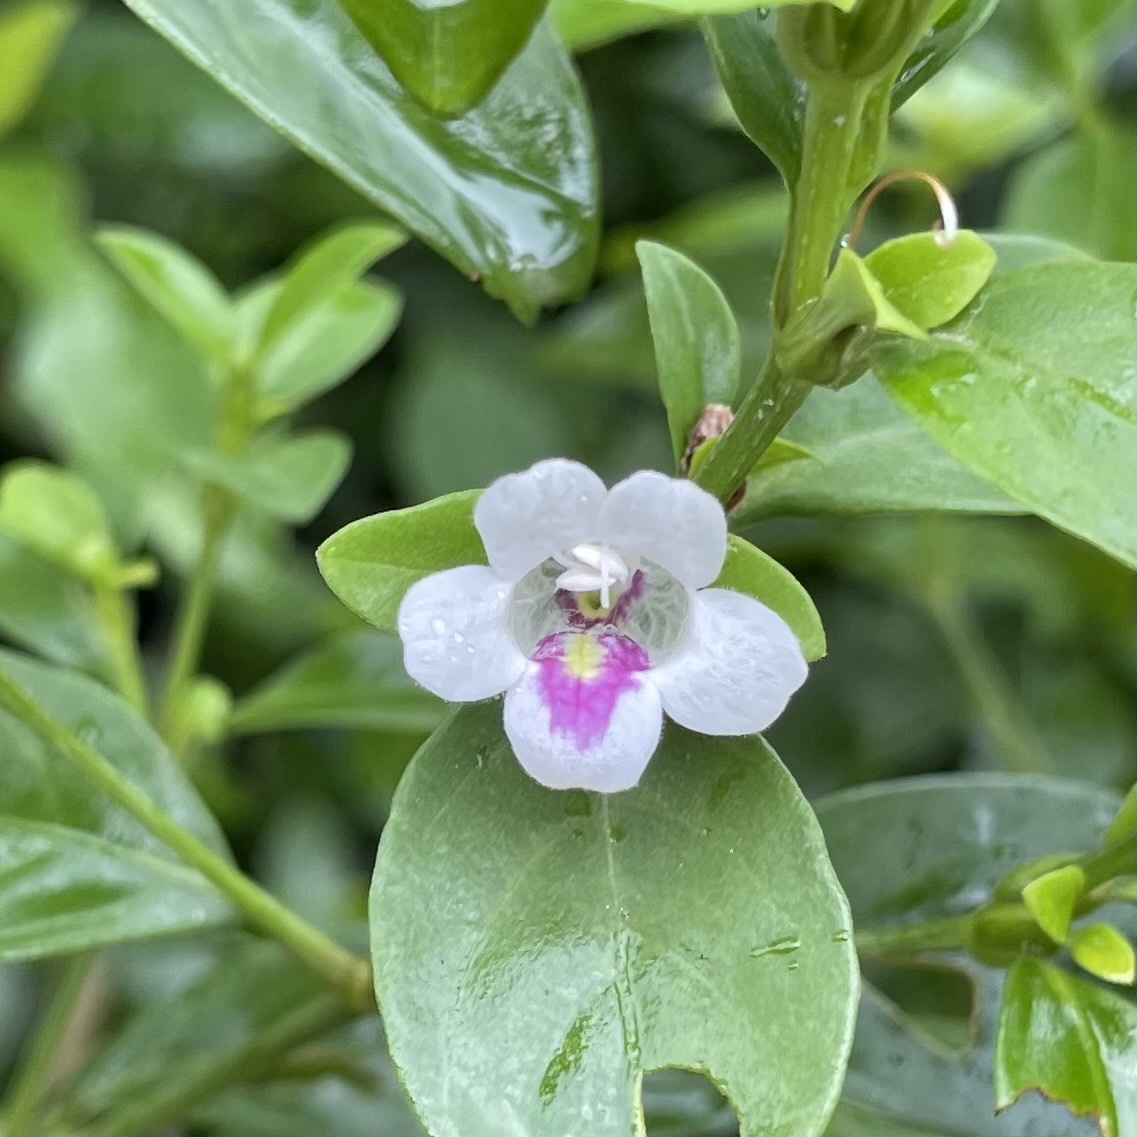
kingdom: Plantae
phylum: Tracheophyta
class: Magnoliopsida
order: Lamiales
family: Acanthaceae
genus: Bravaisia
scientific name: Bravaisia berlandieriana
